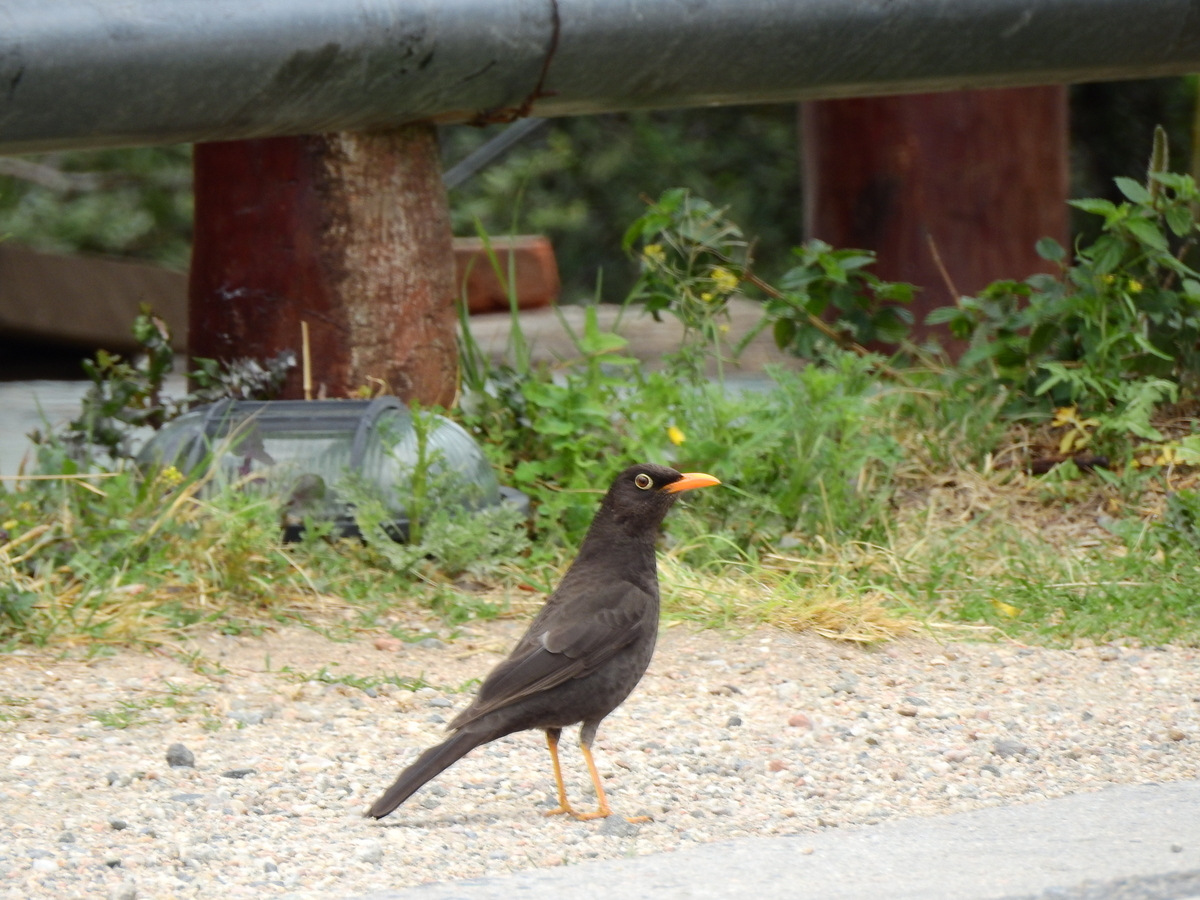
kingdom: Animalia
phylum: Chordata
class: Aves
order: Passeriformes
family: Turdidae
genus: Turdus
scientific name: Turdus chiguanco
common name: Chiguanco thrush
